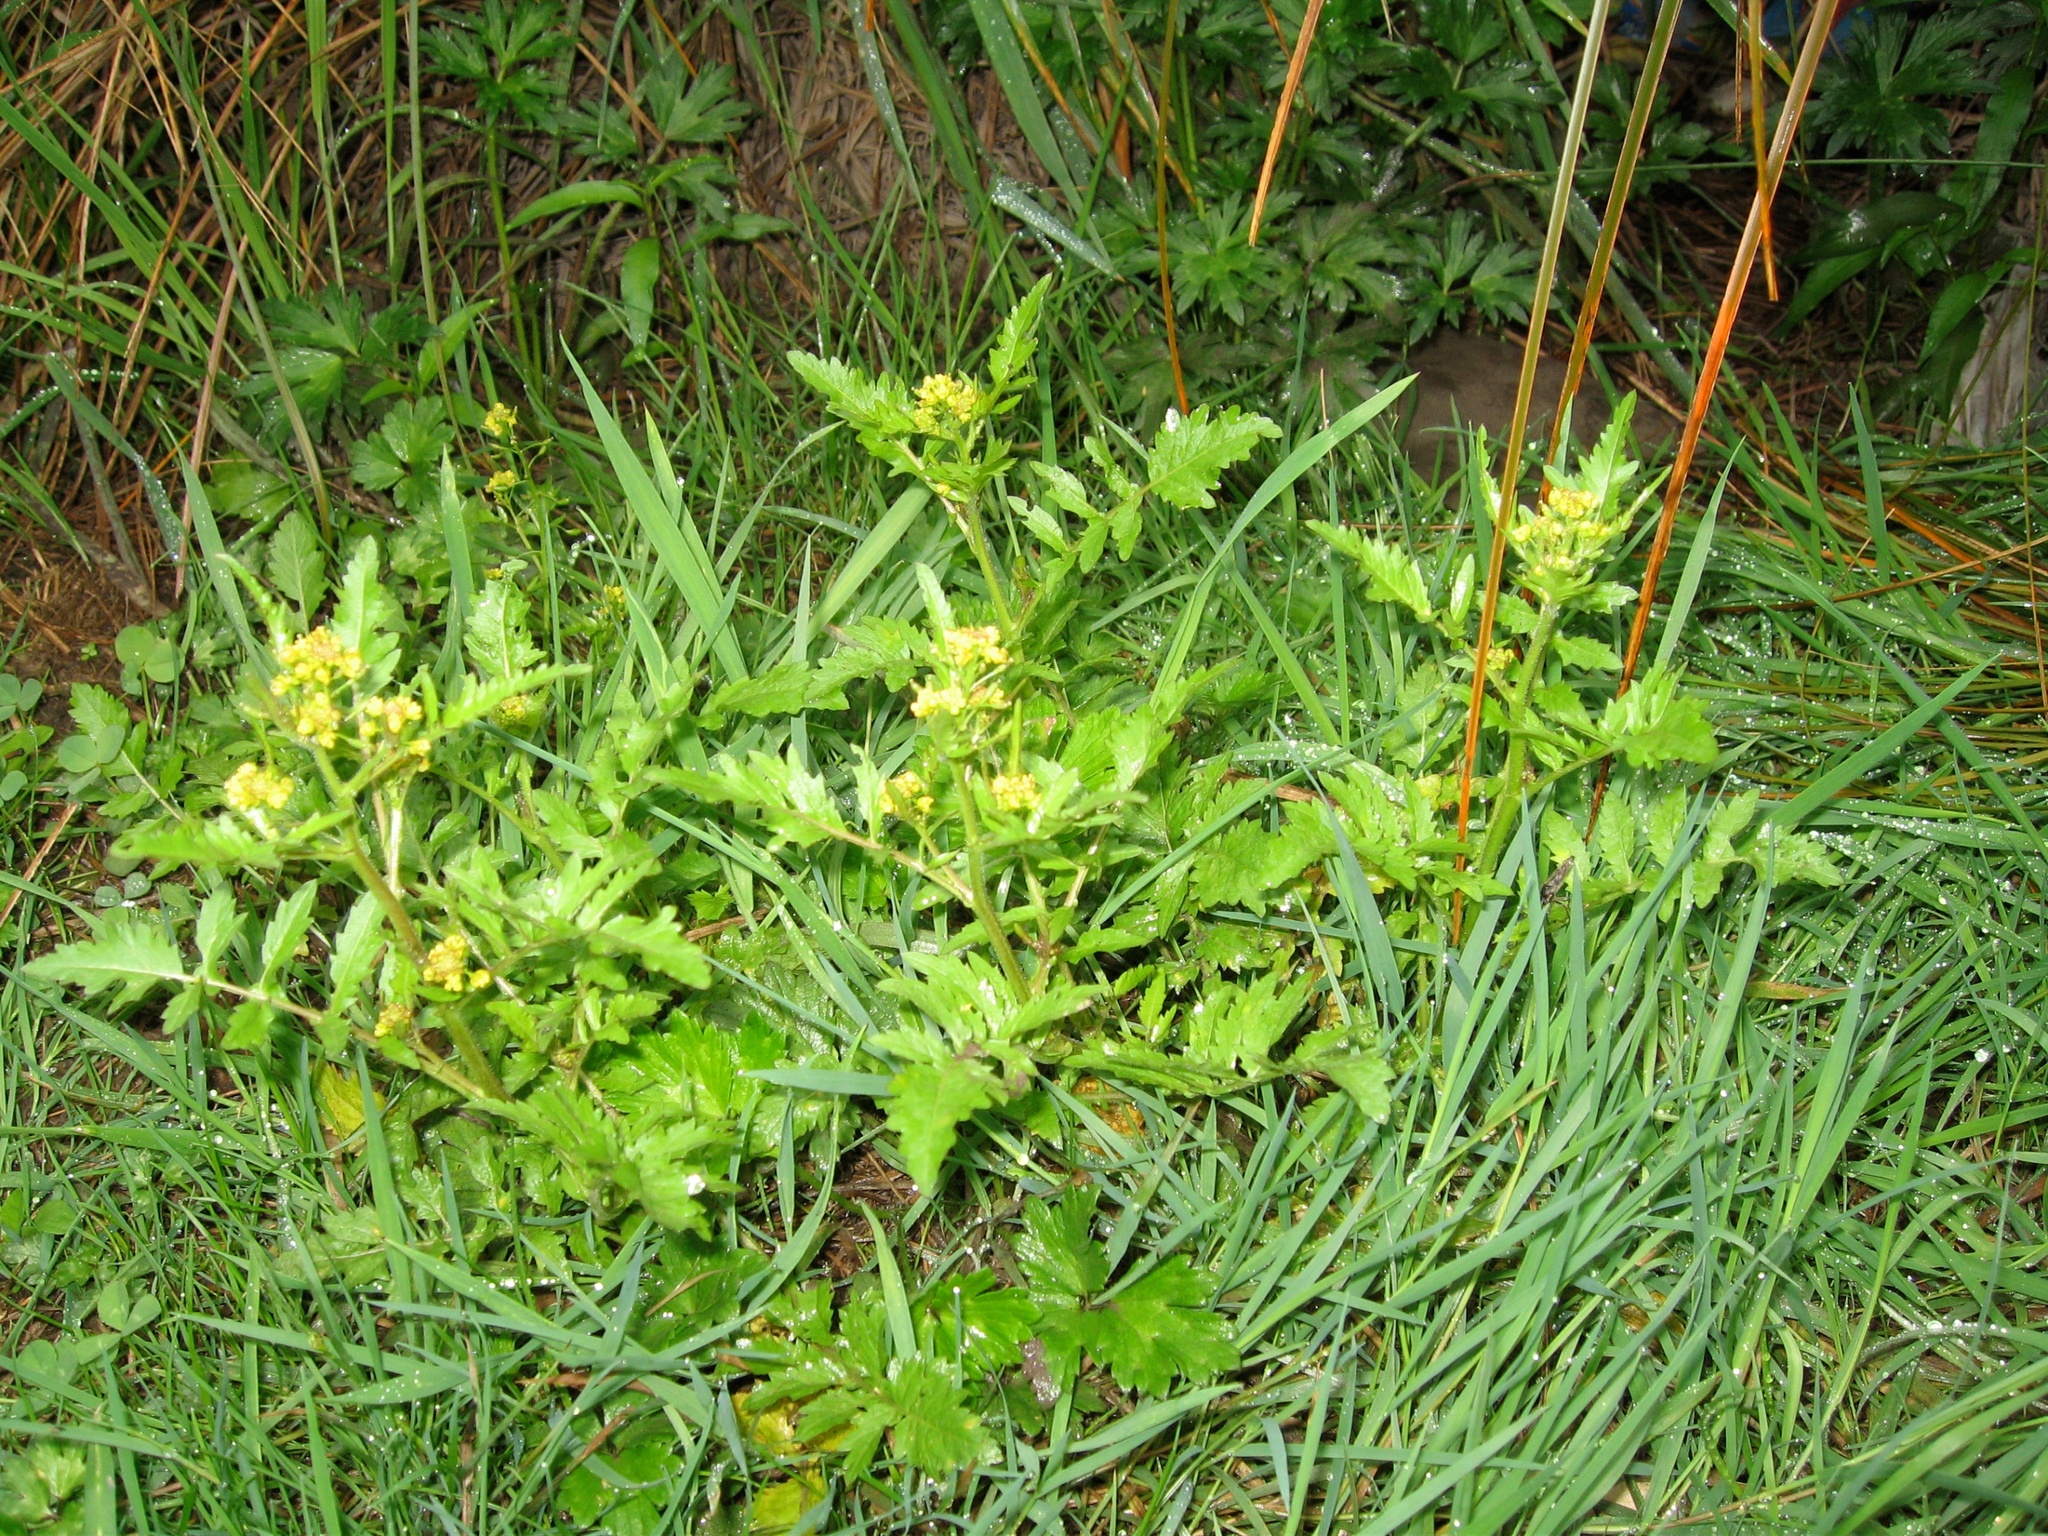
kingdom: Plantae
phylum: Tracheophyta
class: Magnoliopsida
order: Brassicales
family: Brassicaceae
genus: Rorippa
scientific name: Rorippa palustris
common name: Marsh yellow-cress
